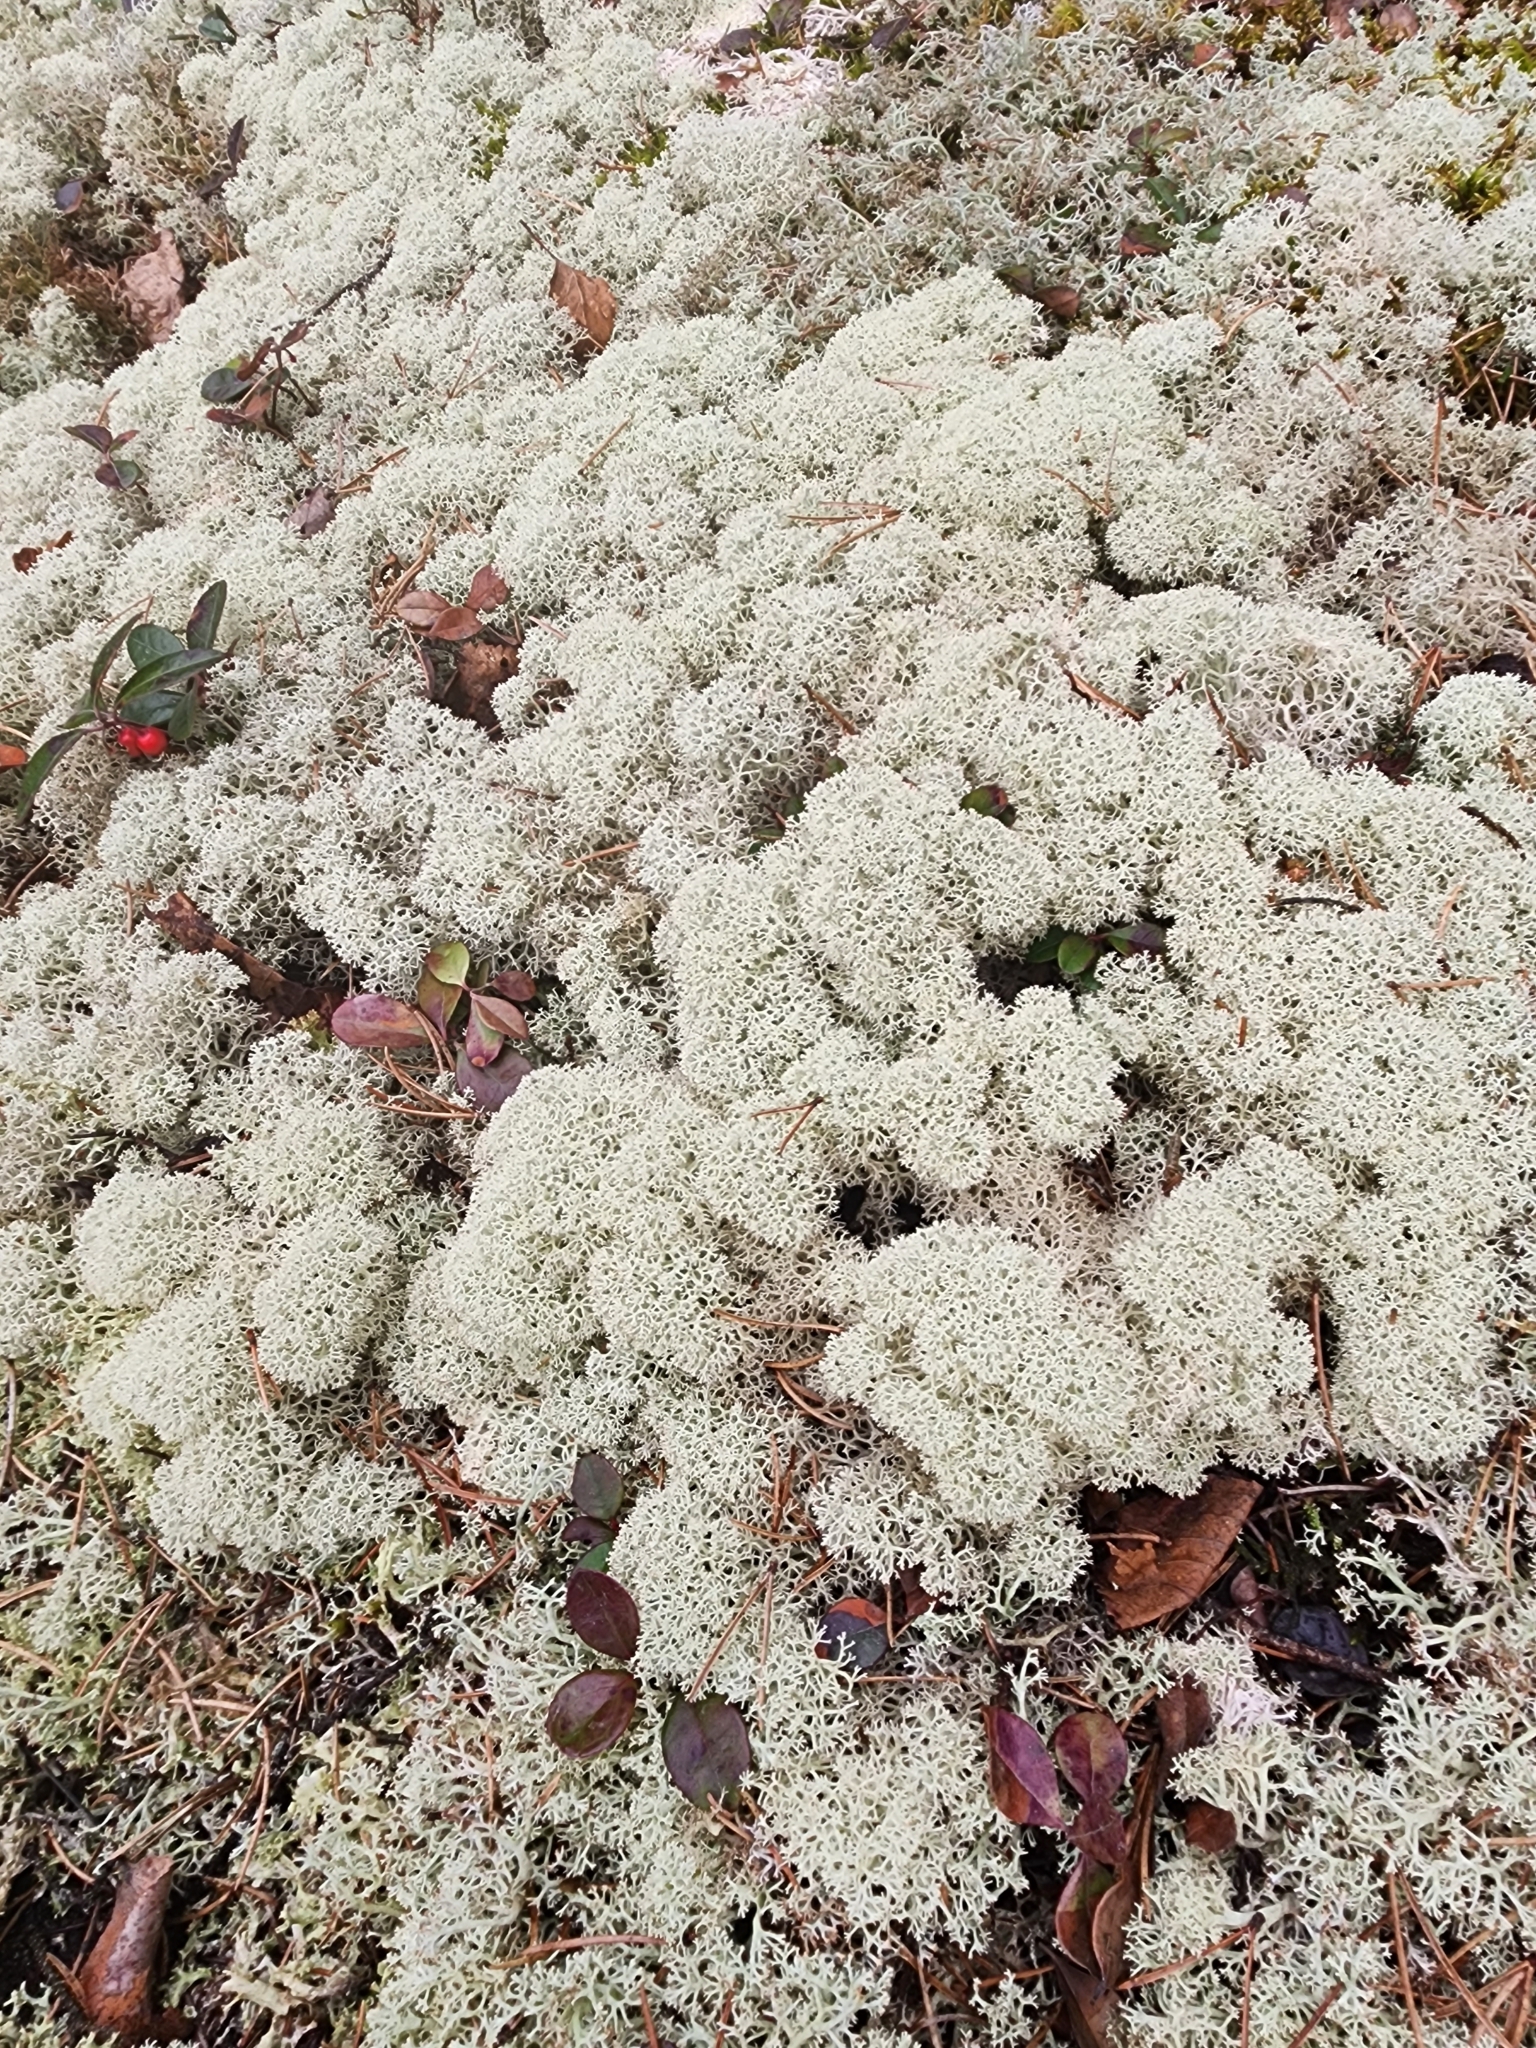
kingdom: Fungi
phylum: Ascomycota
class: Lecanoromycetes
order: Lecanorales
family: Cladoniaceae
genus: Cladonia
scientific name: Cladonia stellaris
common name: Star-tipped reindeer lichen
